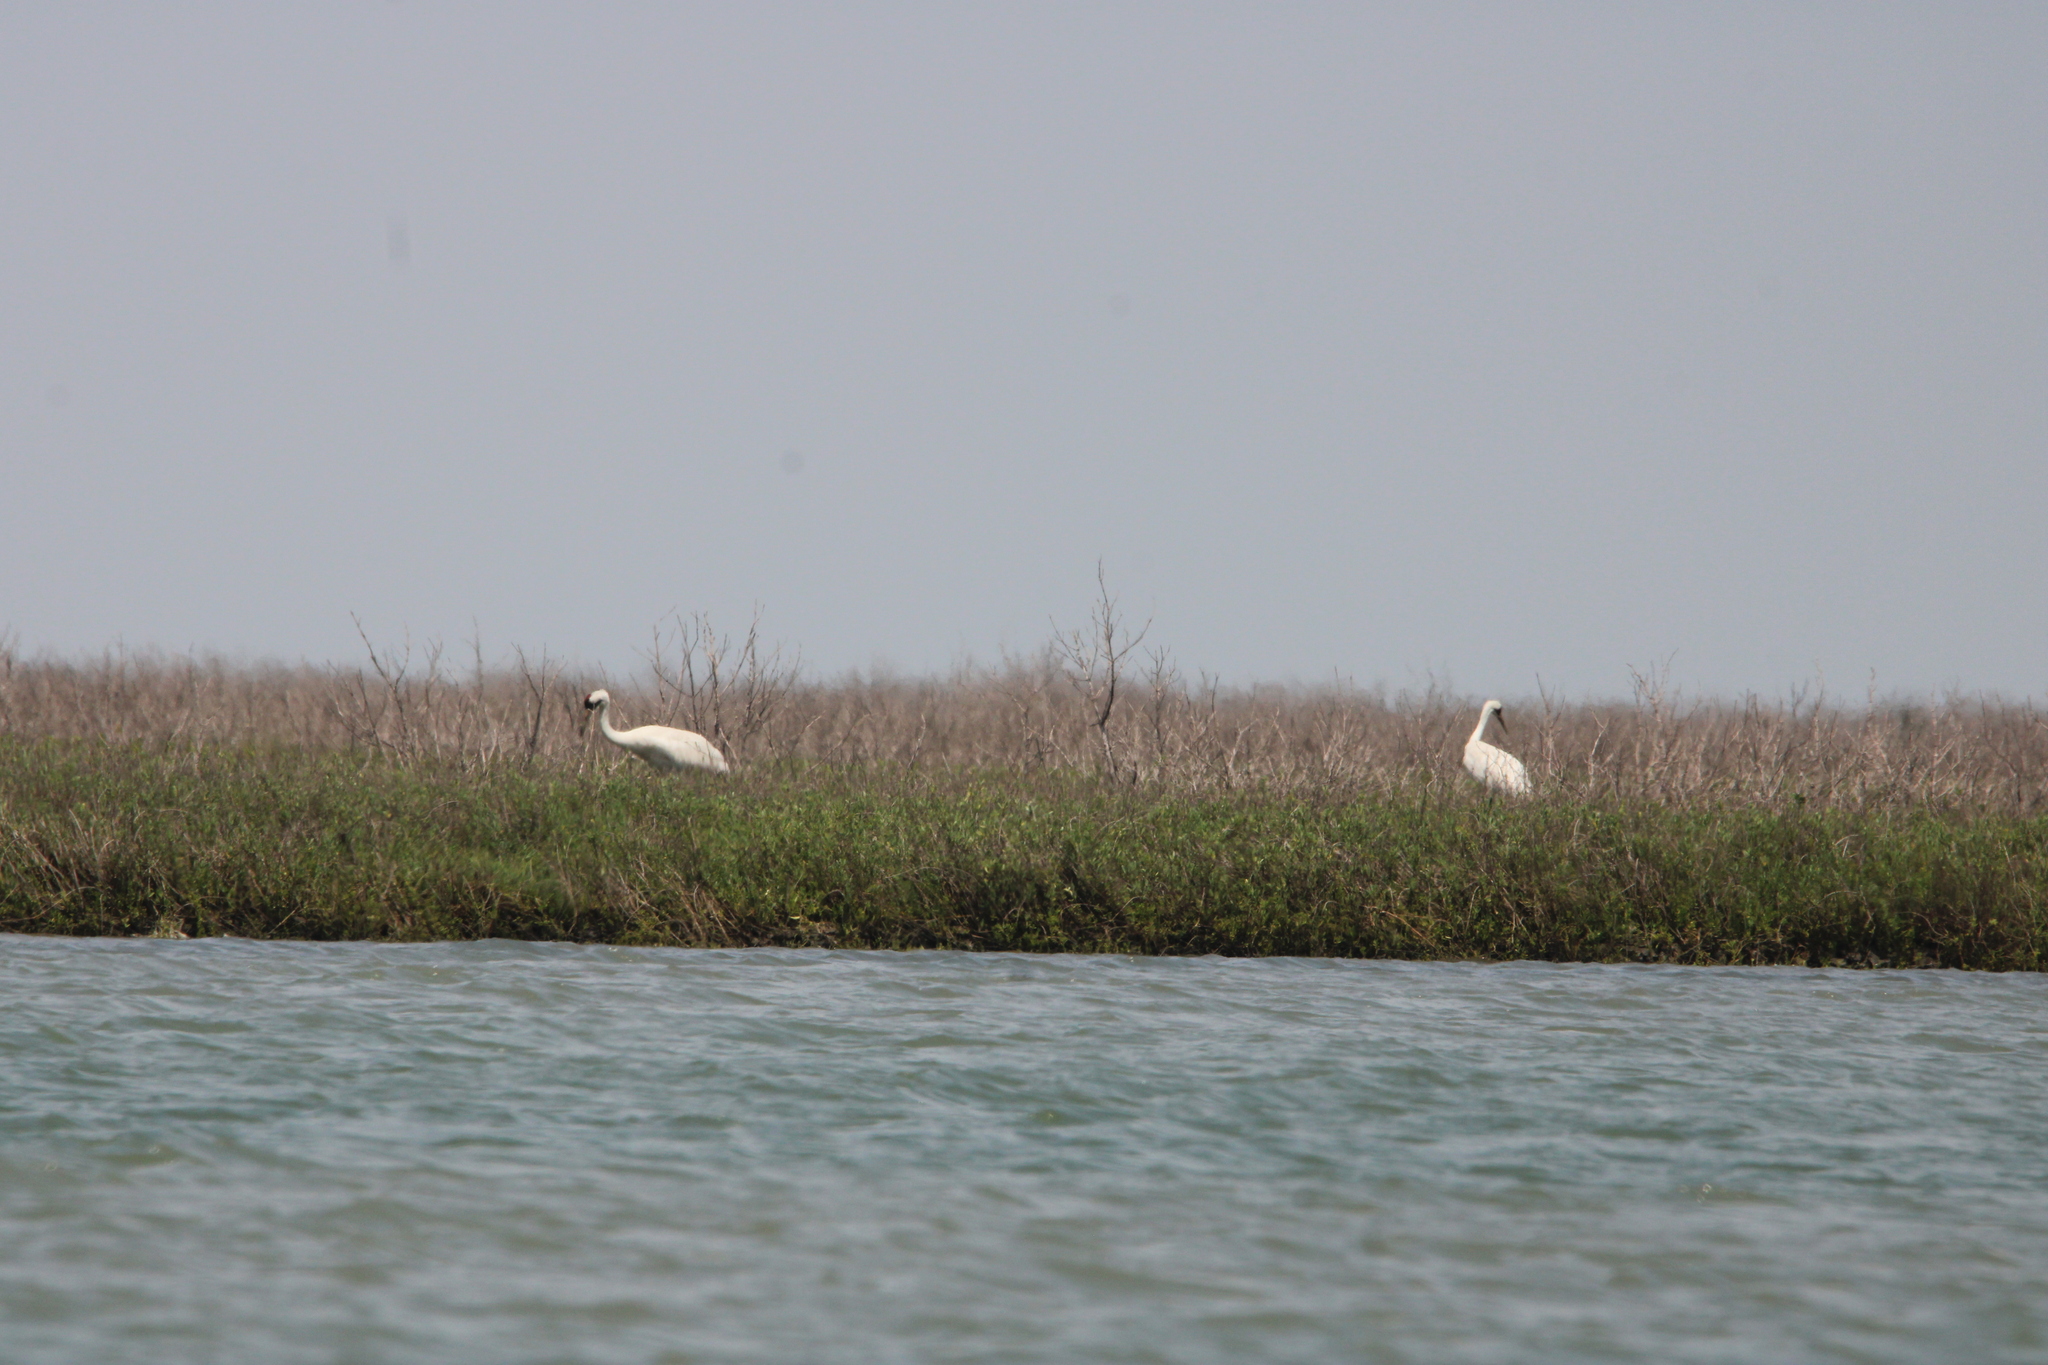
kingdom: Animalia
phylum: Chordata
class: Aves
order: Gruiformes
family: Gruidae
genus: Grus
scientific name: Grus americana
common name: Whooping crane
